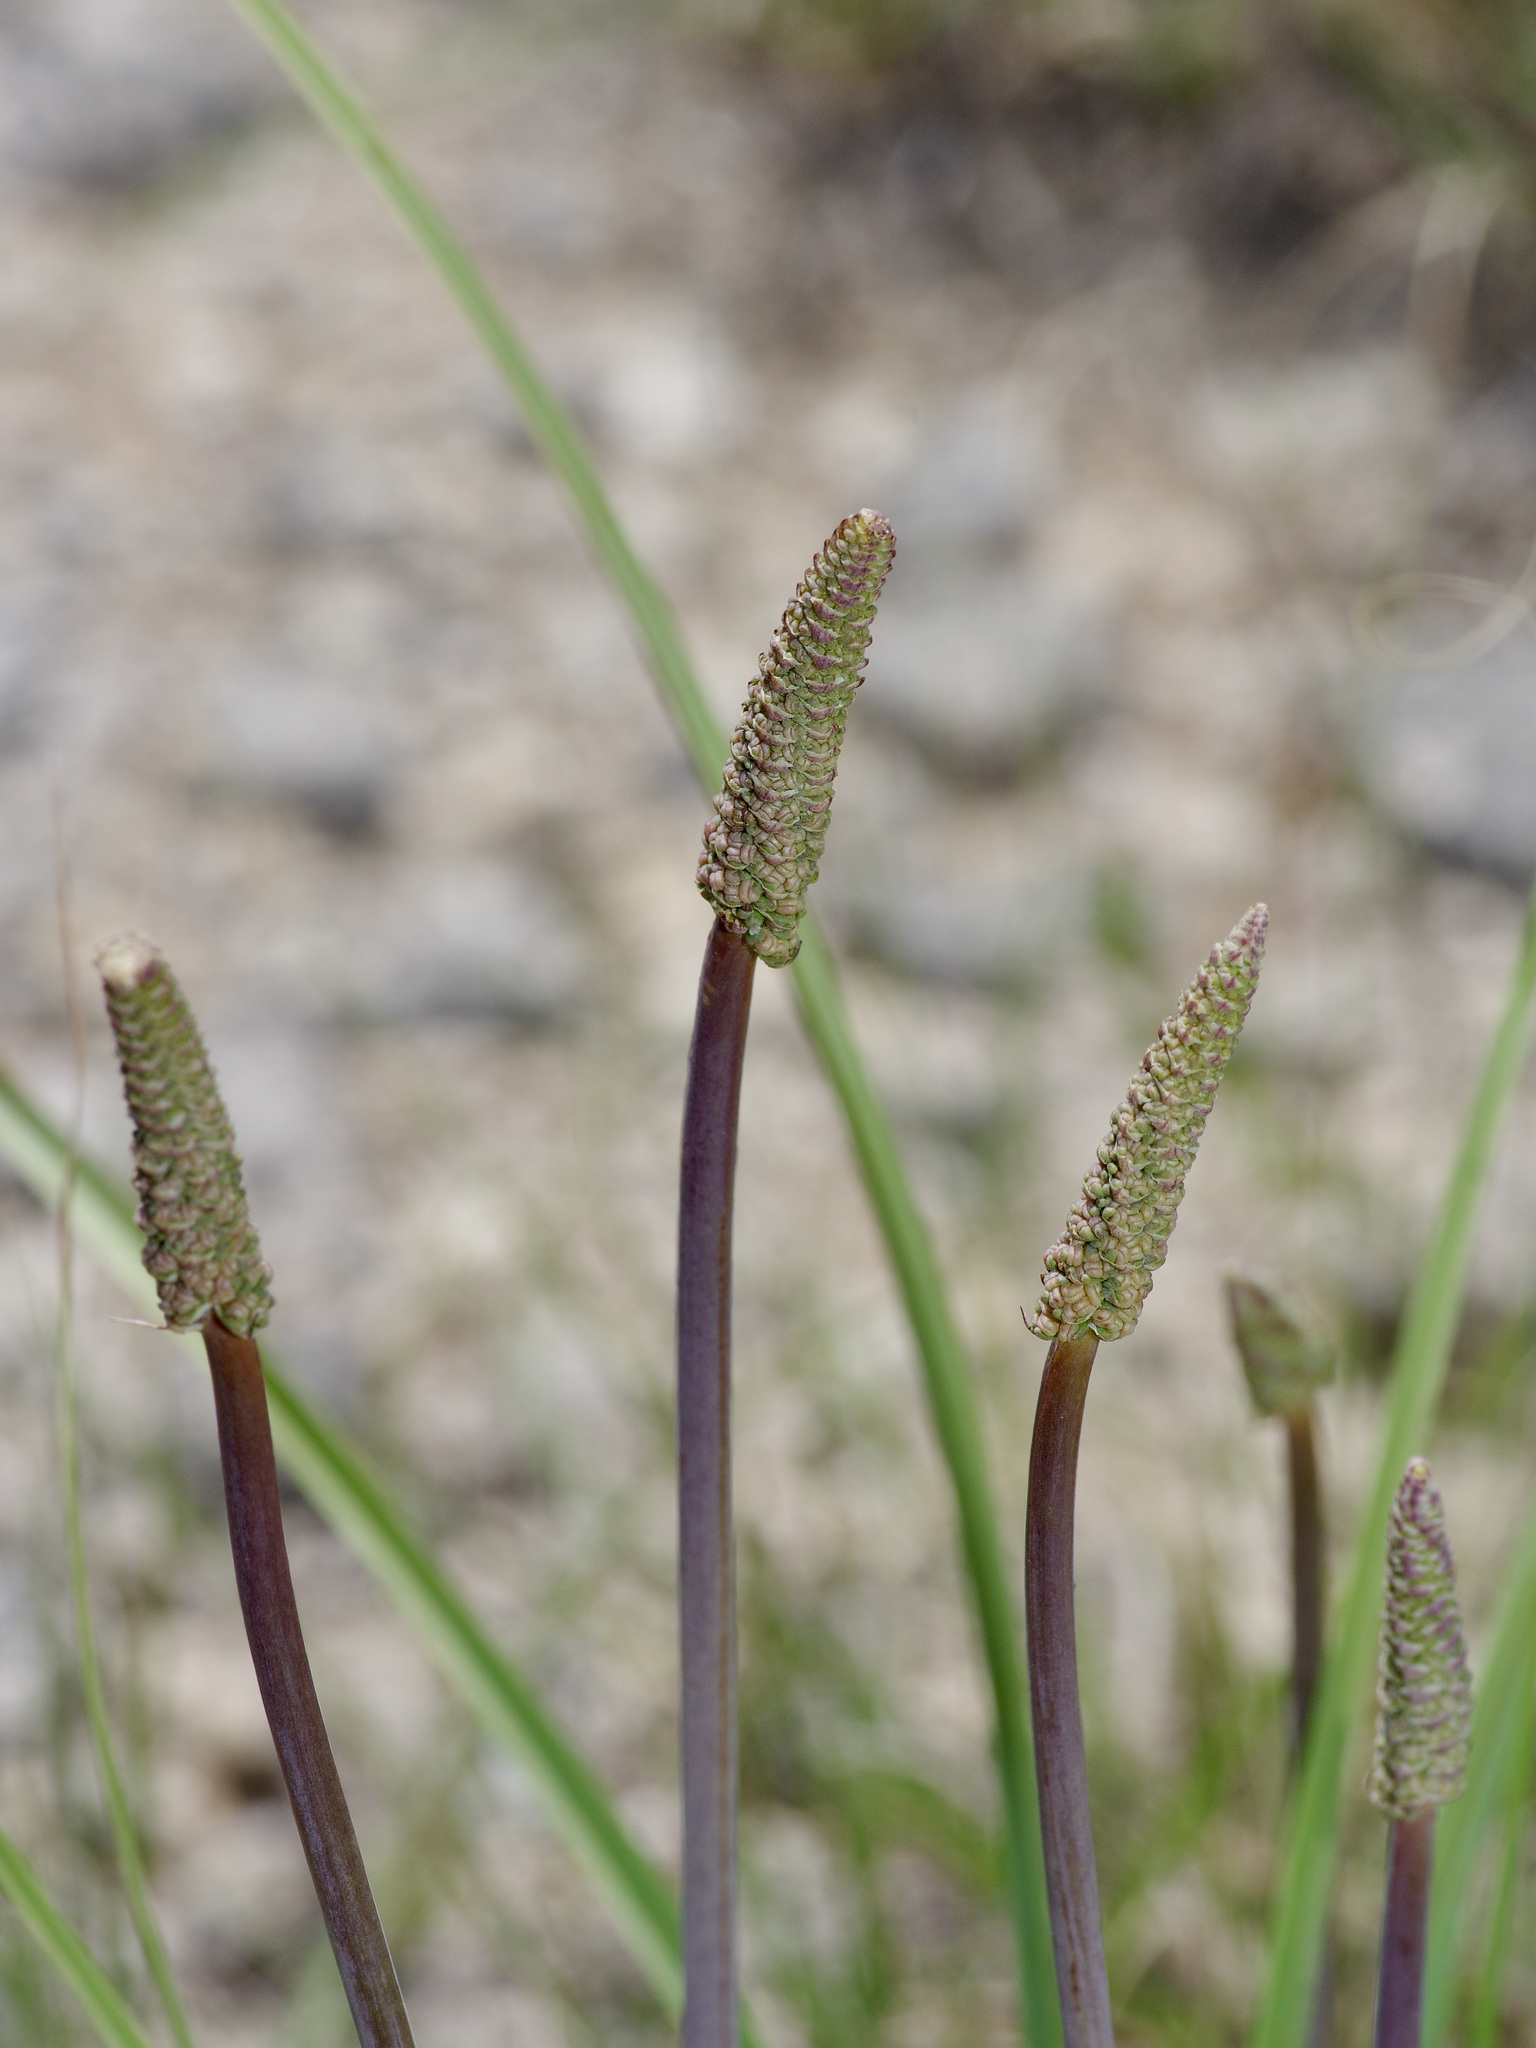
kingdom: Plantae
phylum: Tracheophyta
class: Liliopsida
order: Liliales
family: Melanthiaceae
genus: Schoenocaulon
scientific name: Schoenocaulon texanum
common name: Texas feather-shank
